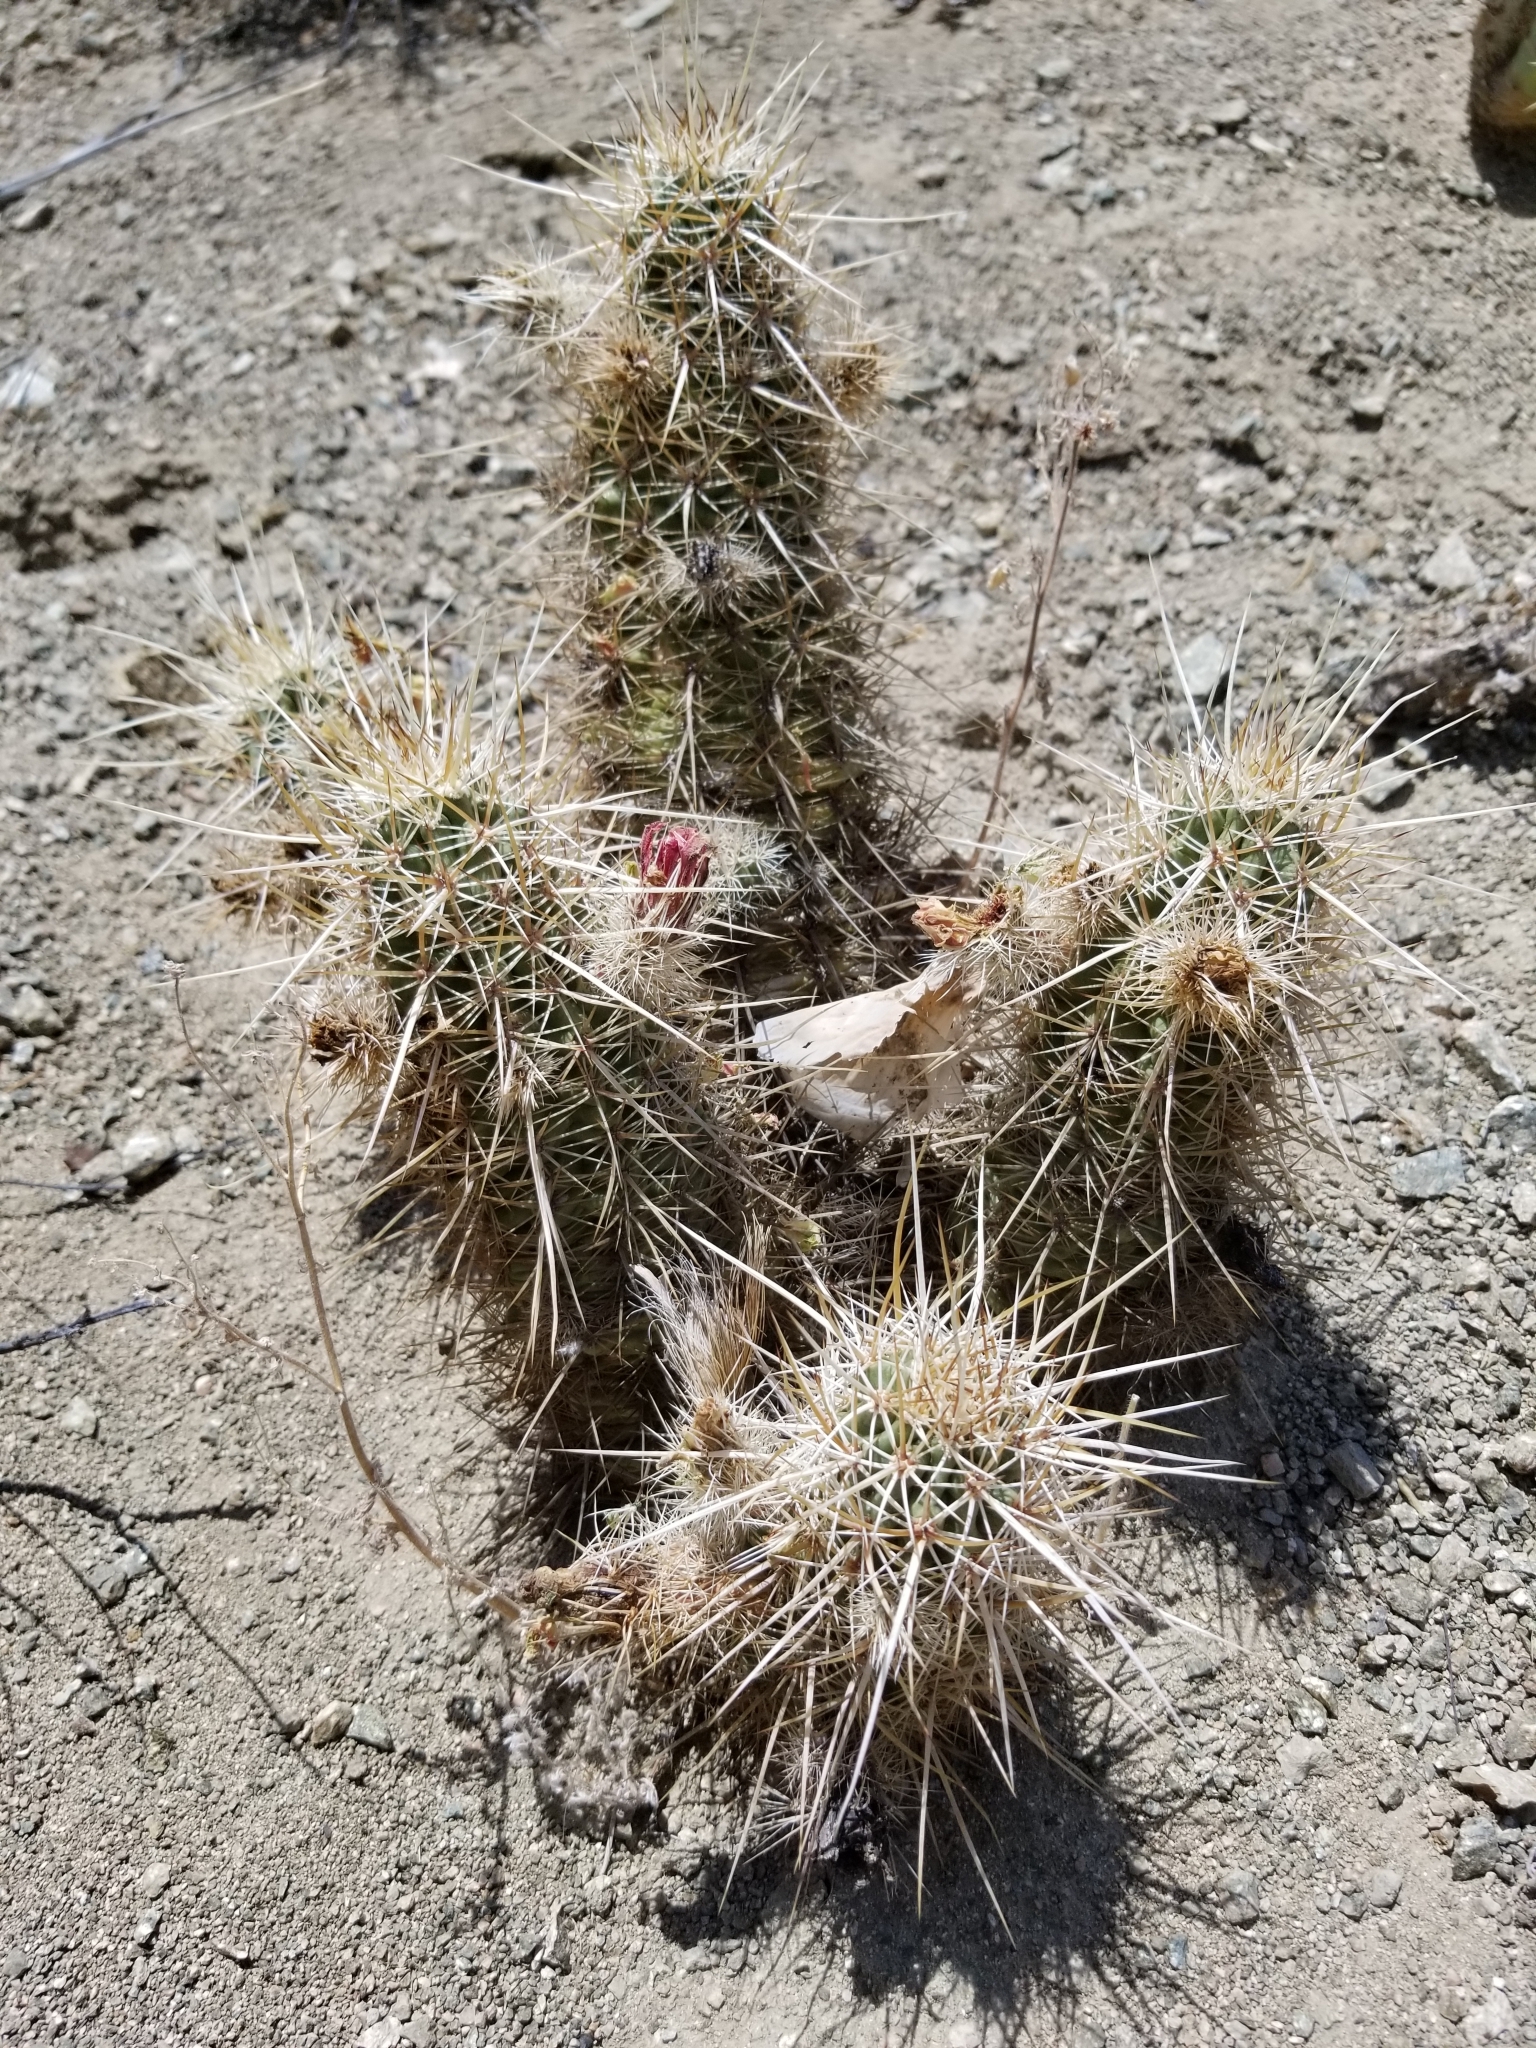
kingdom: Plantae
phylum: Tracheophyta
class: Magnoliopsida
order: Caryophyllales
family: Cactaceae
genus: Echinocereus
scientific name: Echinocereus engelmannii
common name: Engelmann's hedgehog cactus
